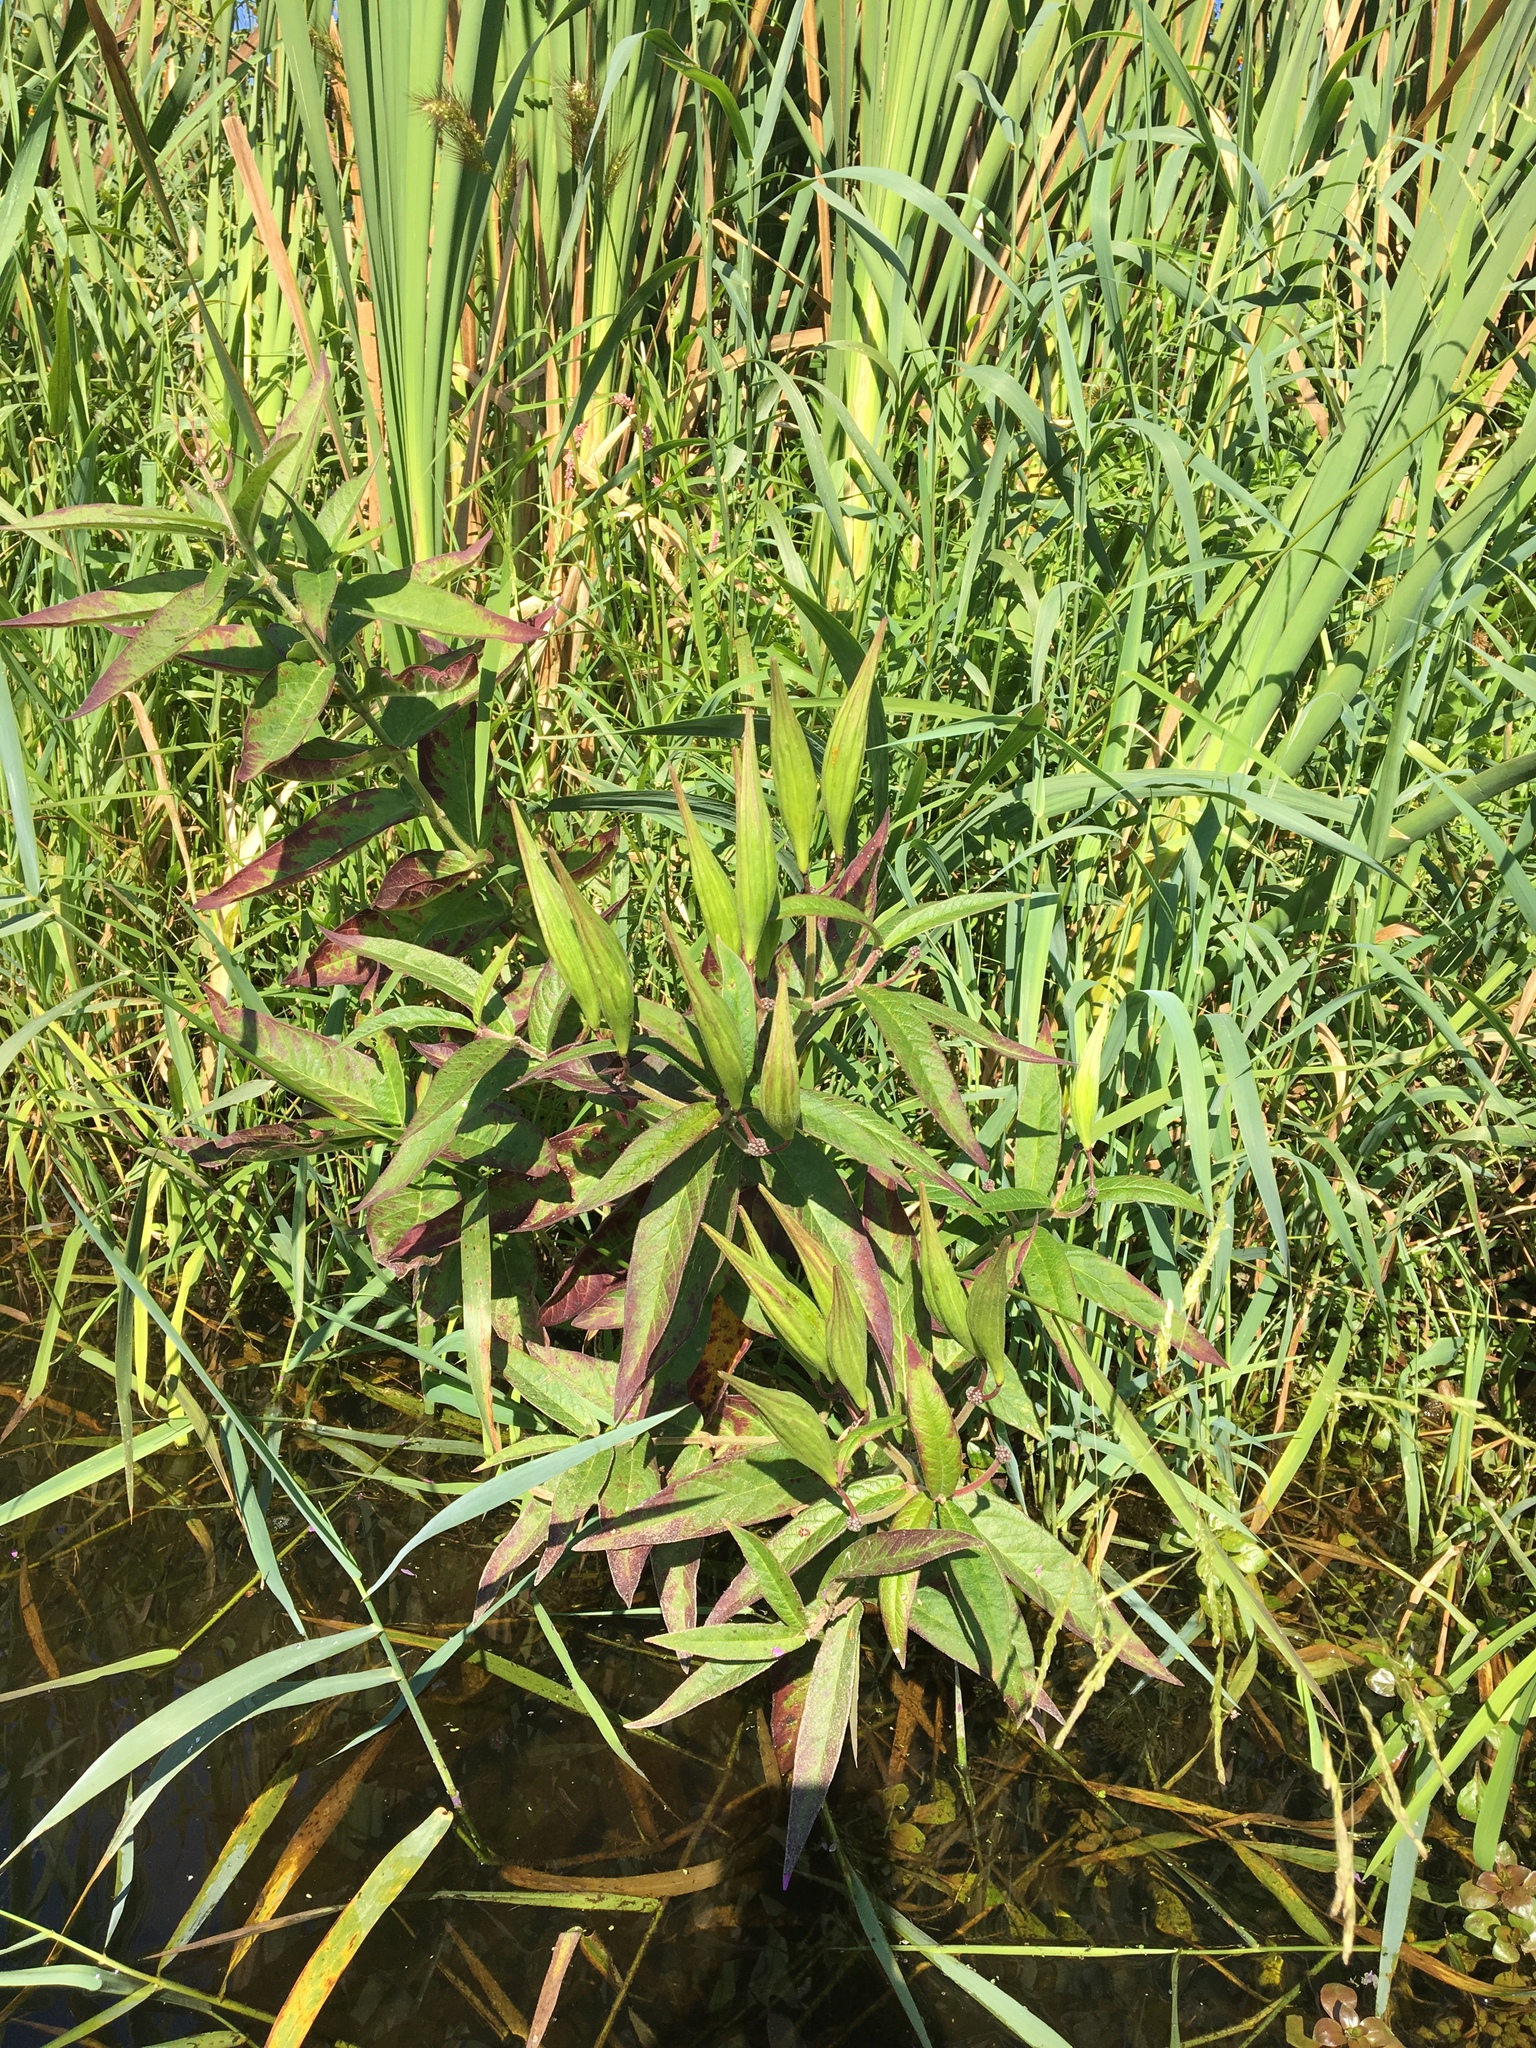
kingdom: Plantae
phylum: Tracheophyta
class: Magnoliopsida
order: Gentianales
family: Apocynaceae
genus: Asclepias
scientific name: Asclepias incarnata
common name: Swamp milkweed
